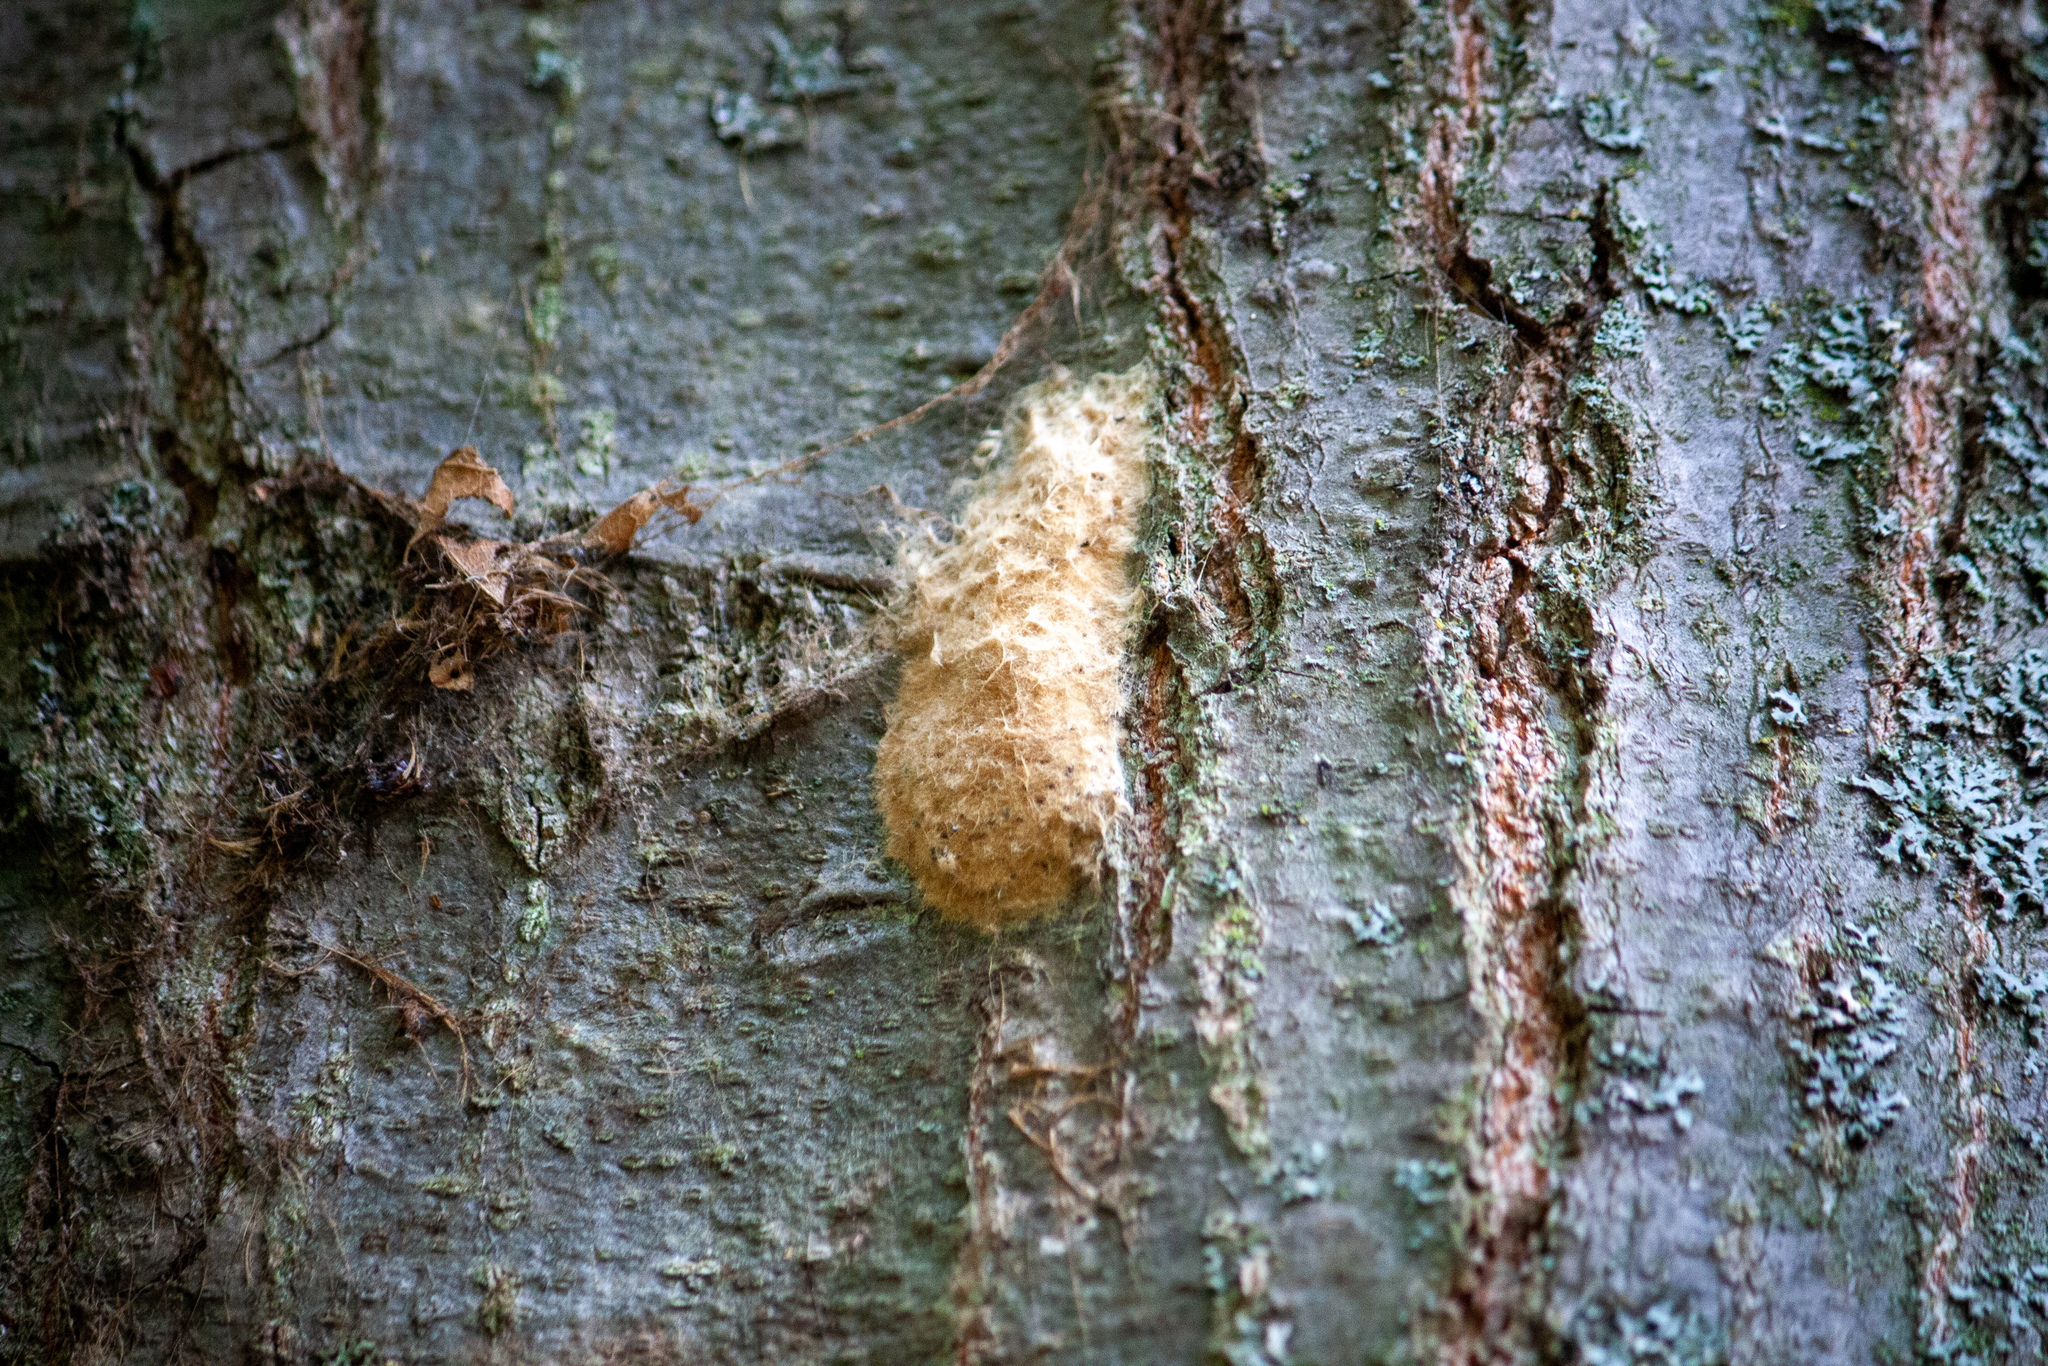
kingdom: Animalia
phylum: Arthropoda
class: Insecta
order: Lepidoptera
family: Erebidae
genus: Lymantria
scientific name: Lymantria dispar
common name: Gypsy moth
